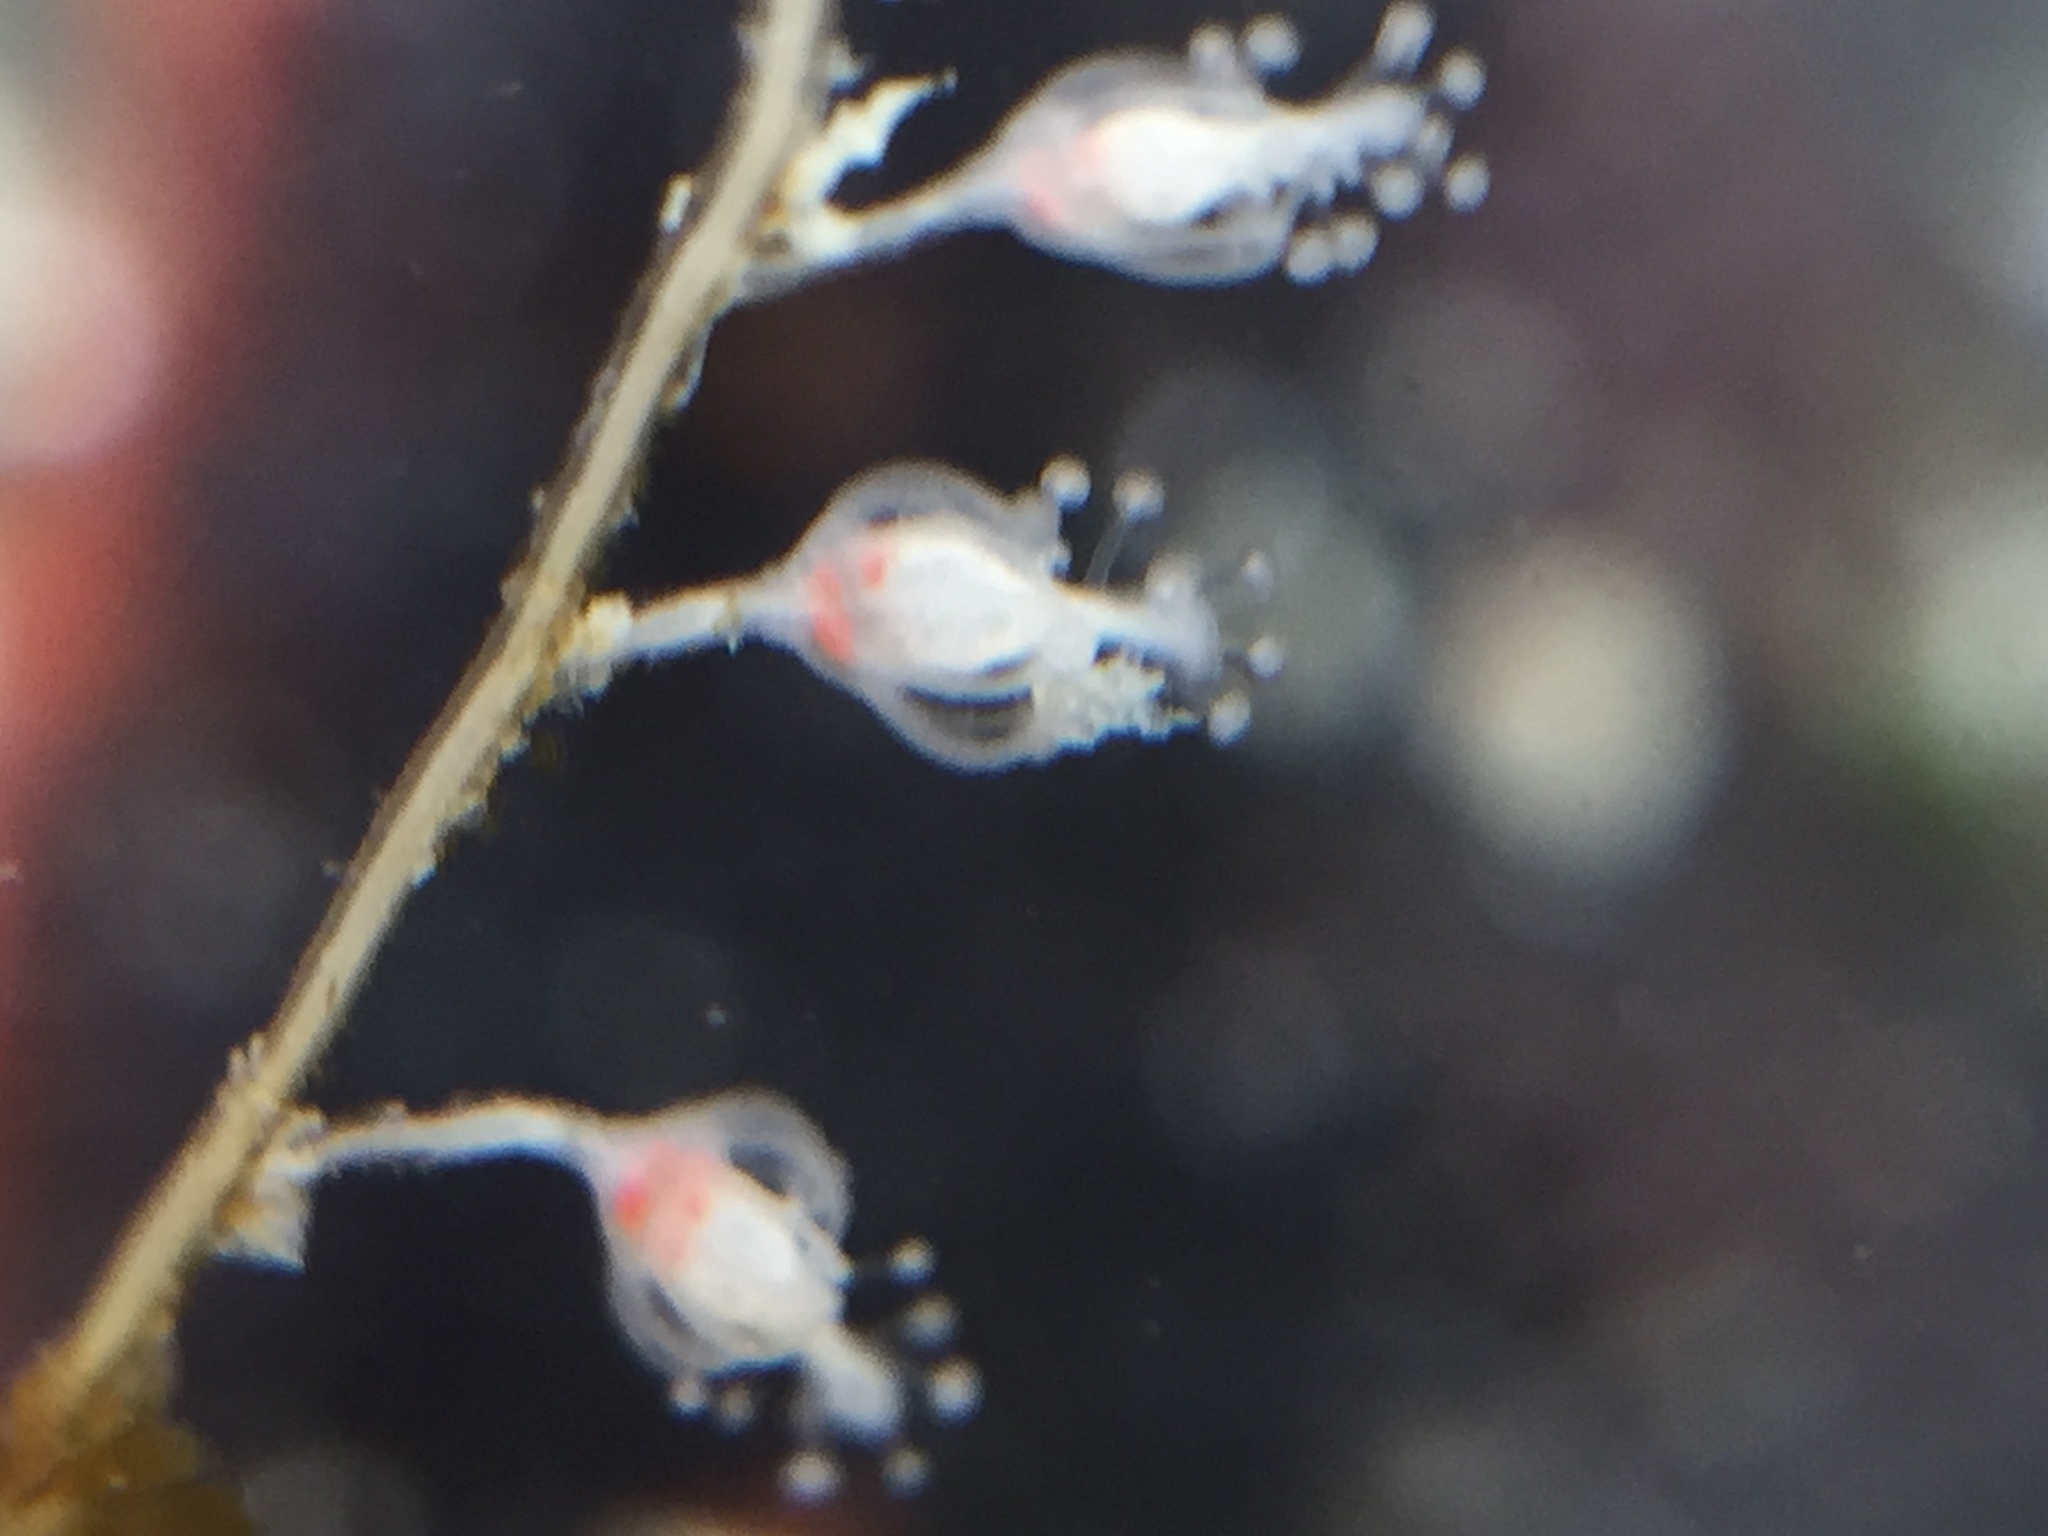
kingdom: Animalia
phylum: Cnidaria
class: Hydrozoa
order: Anthoathecata
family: Pennariidae
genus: Pennaria
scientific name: Pennaria disticha
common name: Feather hydroid
